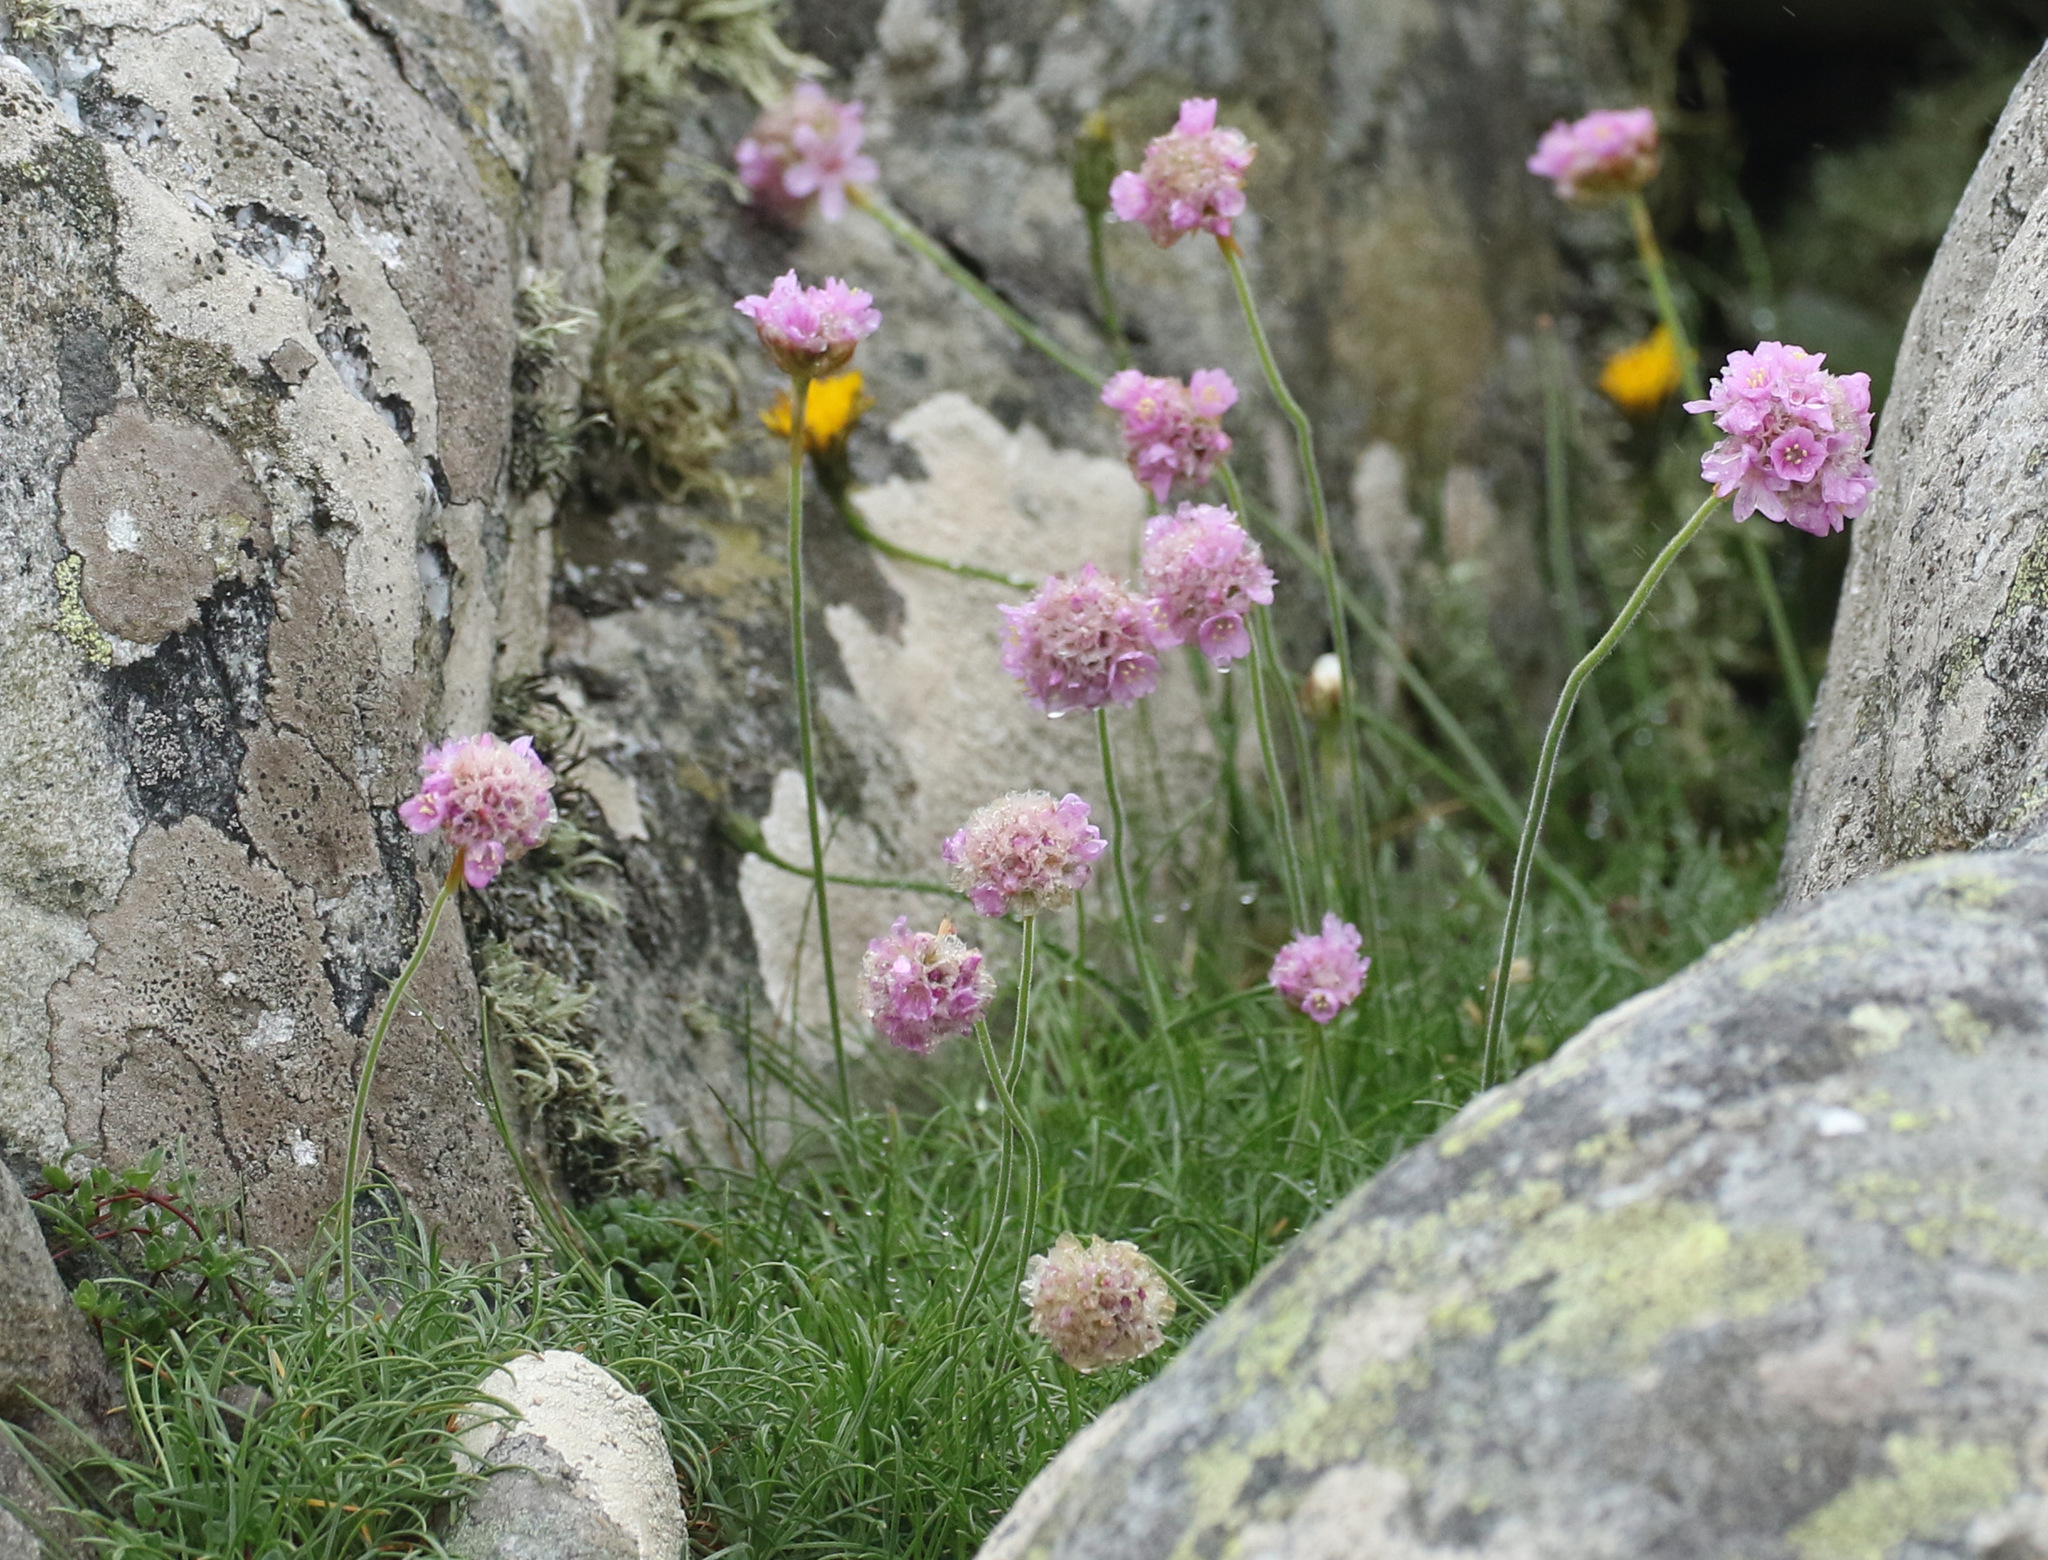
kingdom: Plantae
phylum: Tracheophyta
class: Magnoliopsida
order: Caryophyllales
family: Plumbaginaceae
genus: Armeria
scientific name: Armeria maritima
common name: Thrift
